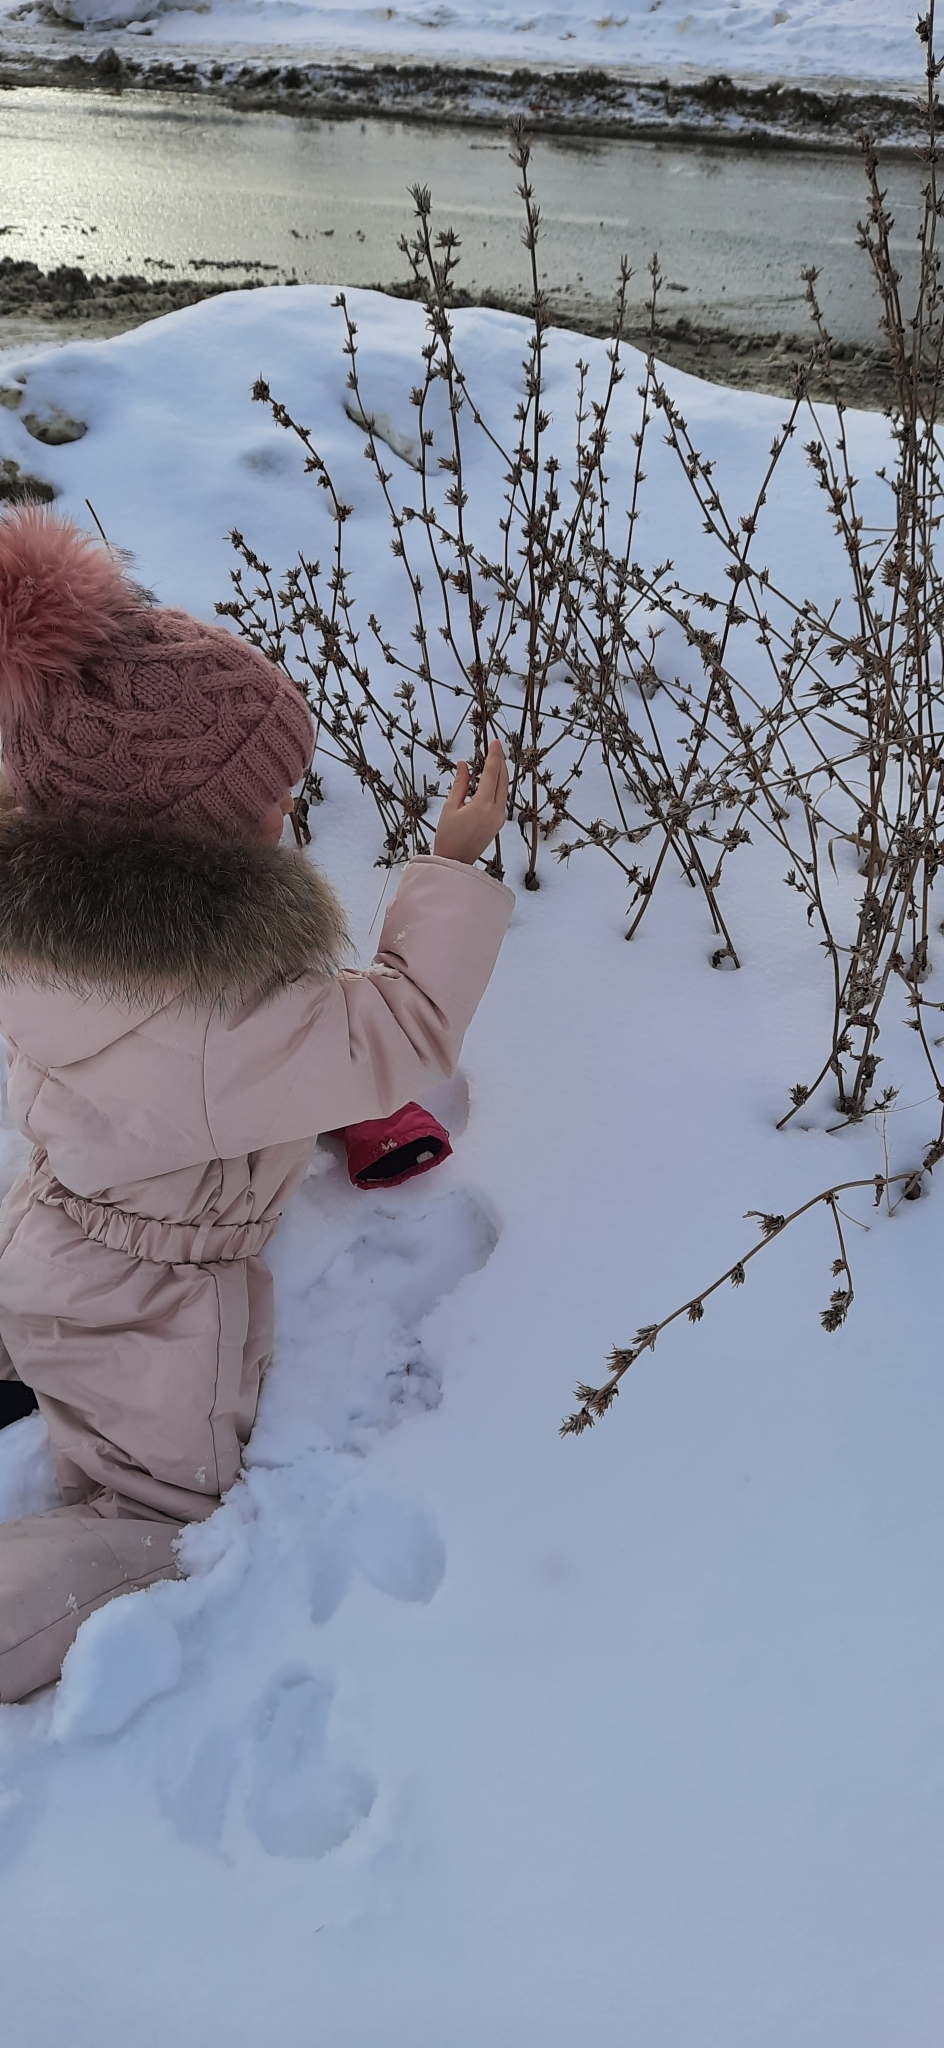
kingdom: Plantae
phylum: Tracheophyta
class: Magnoliopsida
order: Asterales
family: Asteraceae
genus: Cichorium
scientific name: Cichorium intybus
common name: Chicory
